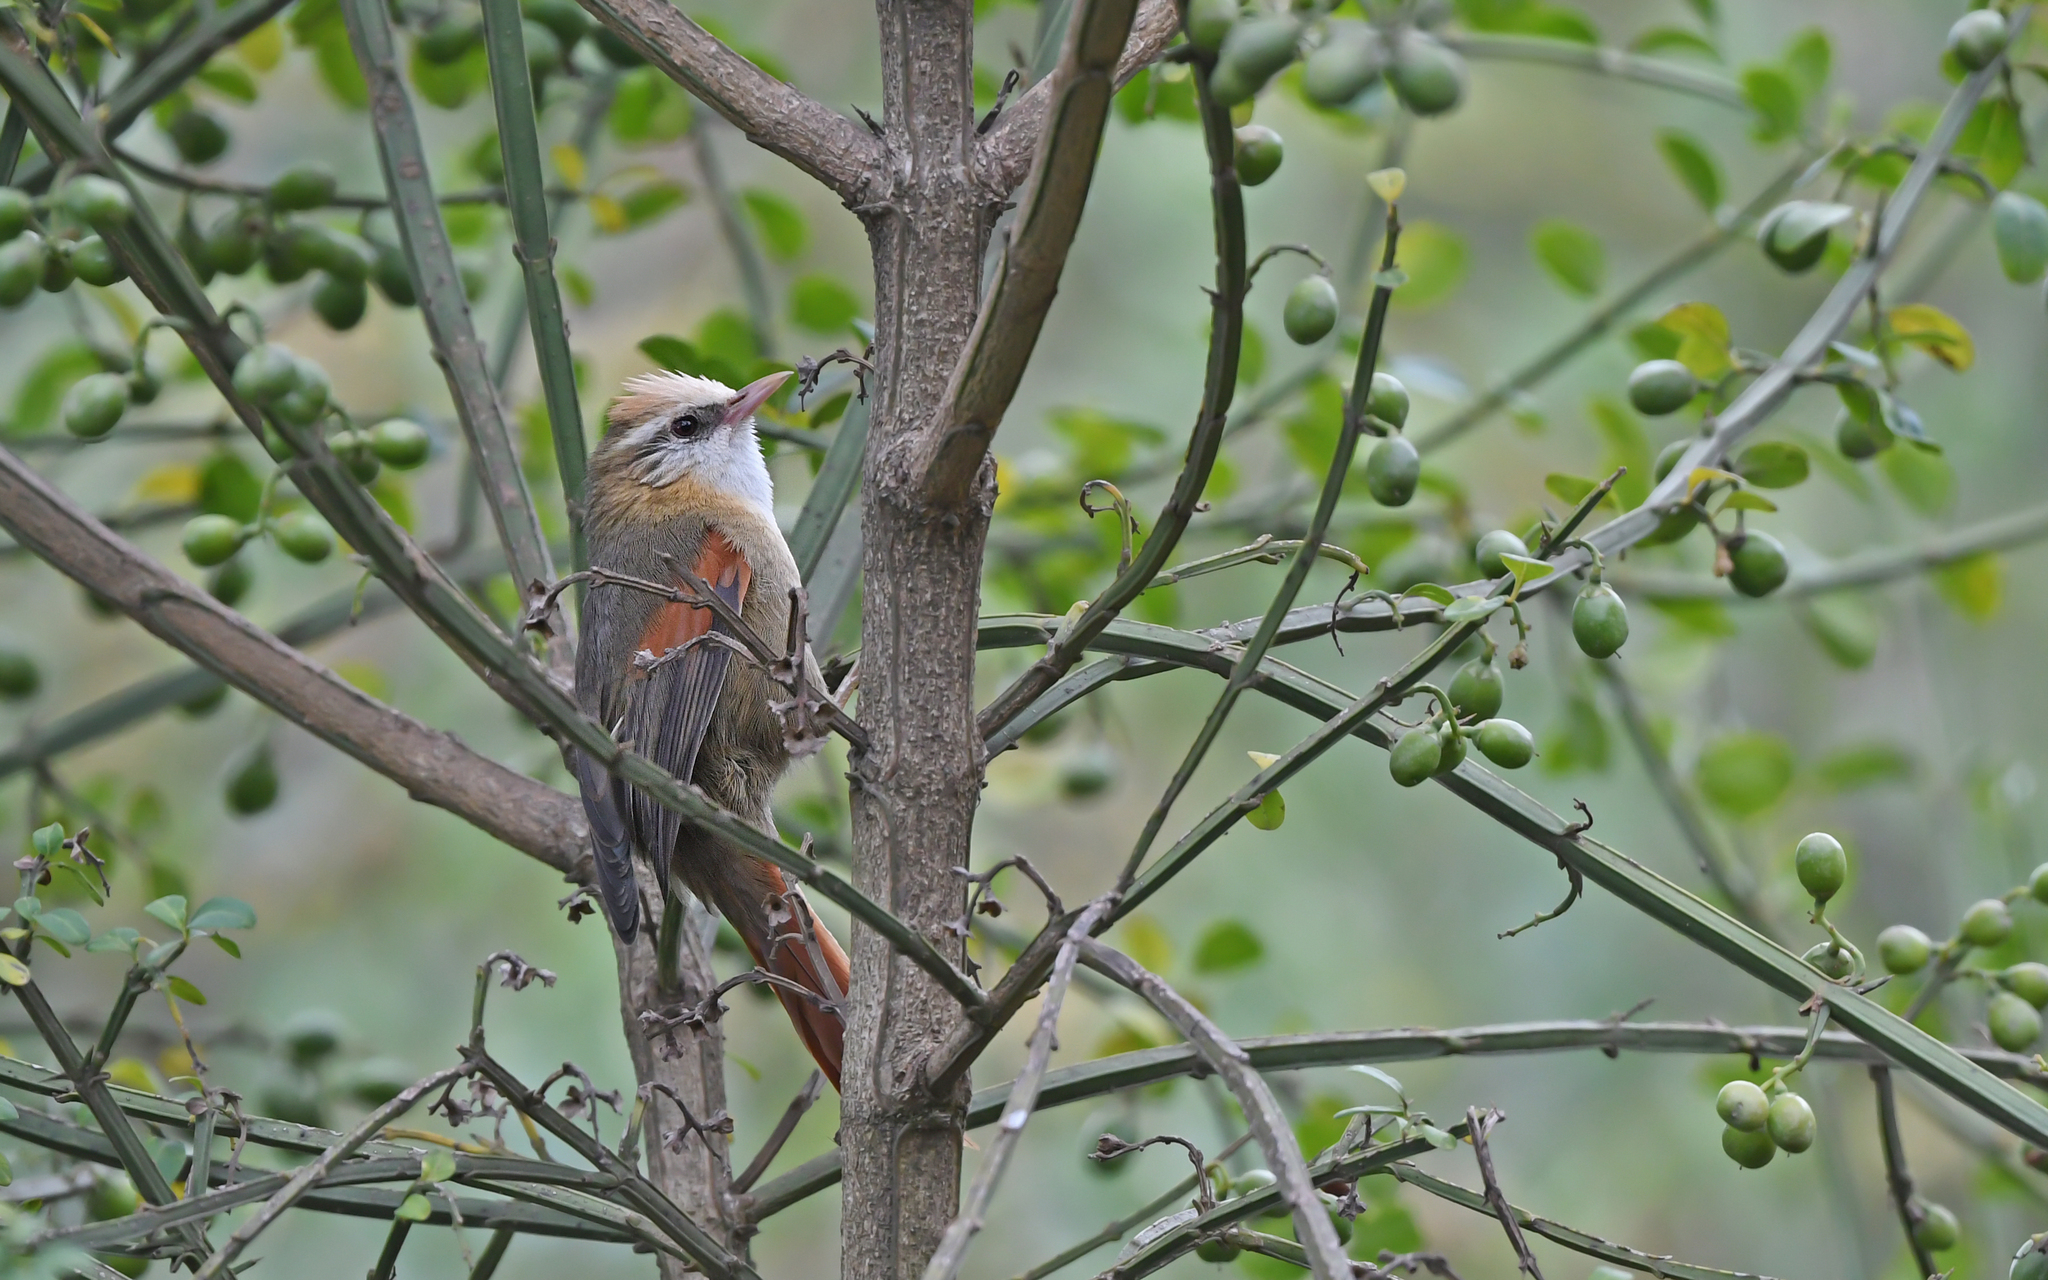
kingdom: Animalia
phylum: Chordata
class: Aves
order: Passeriformes
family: Furnariidae
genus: Cranioleuca
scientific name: Cranioleuca albicapilla
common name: Creamy-crested spinetail
